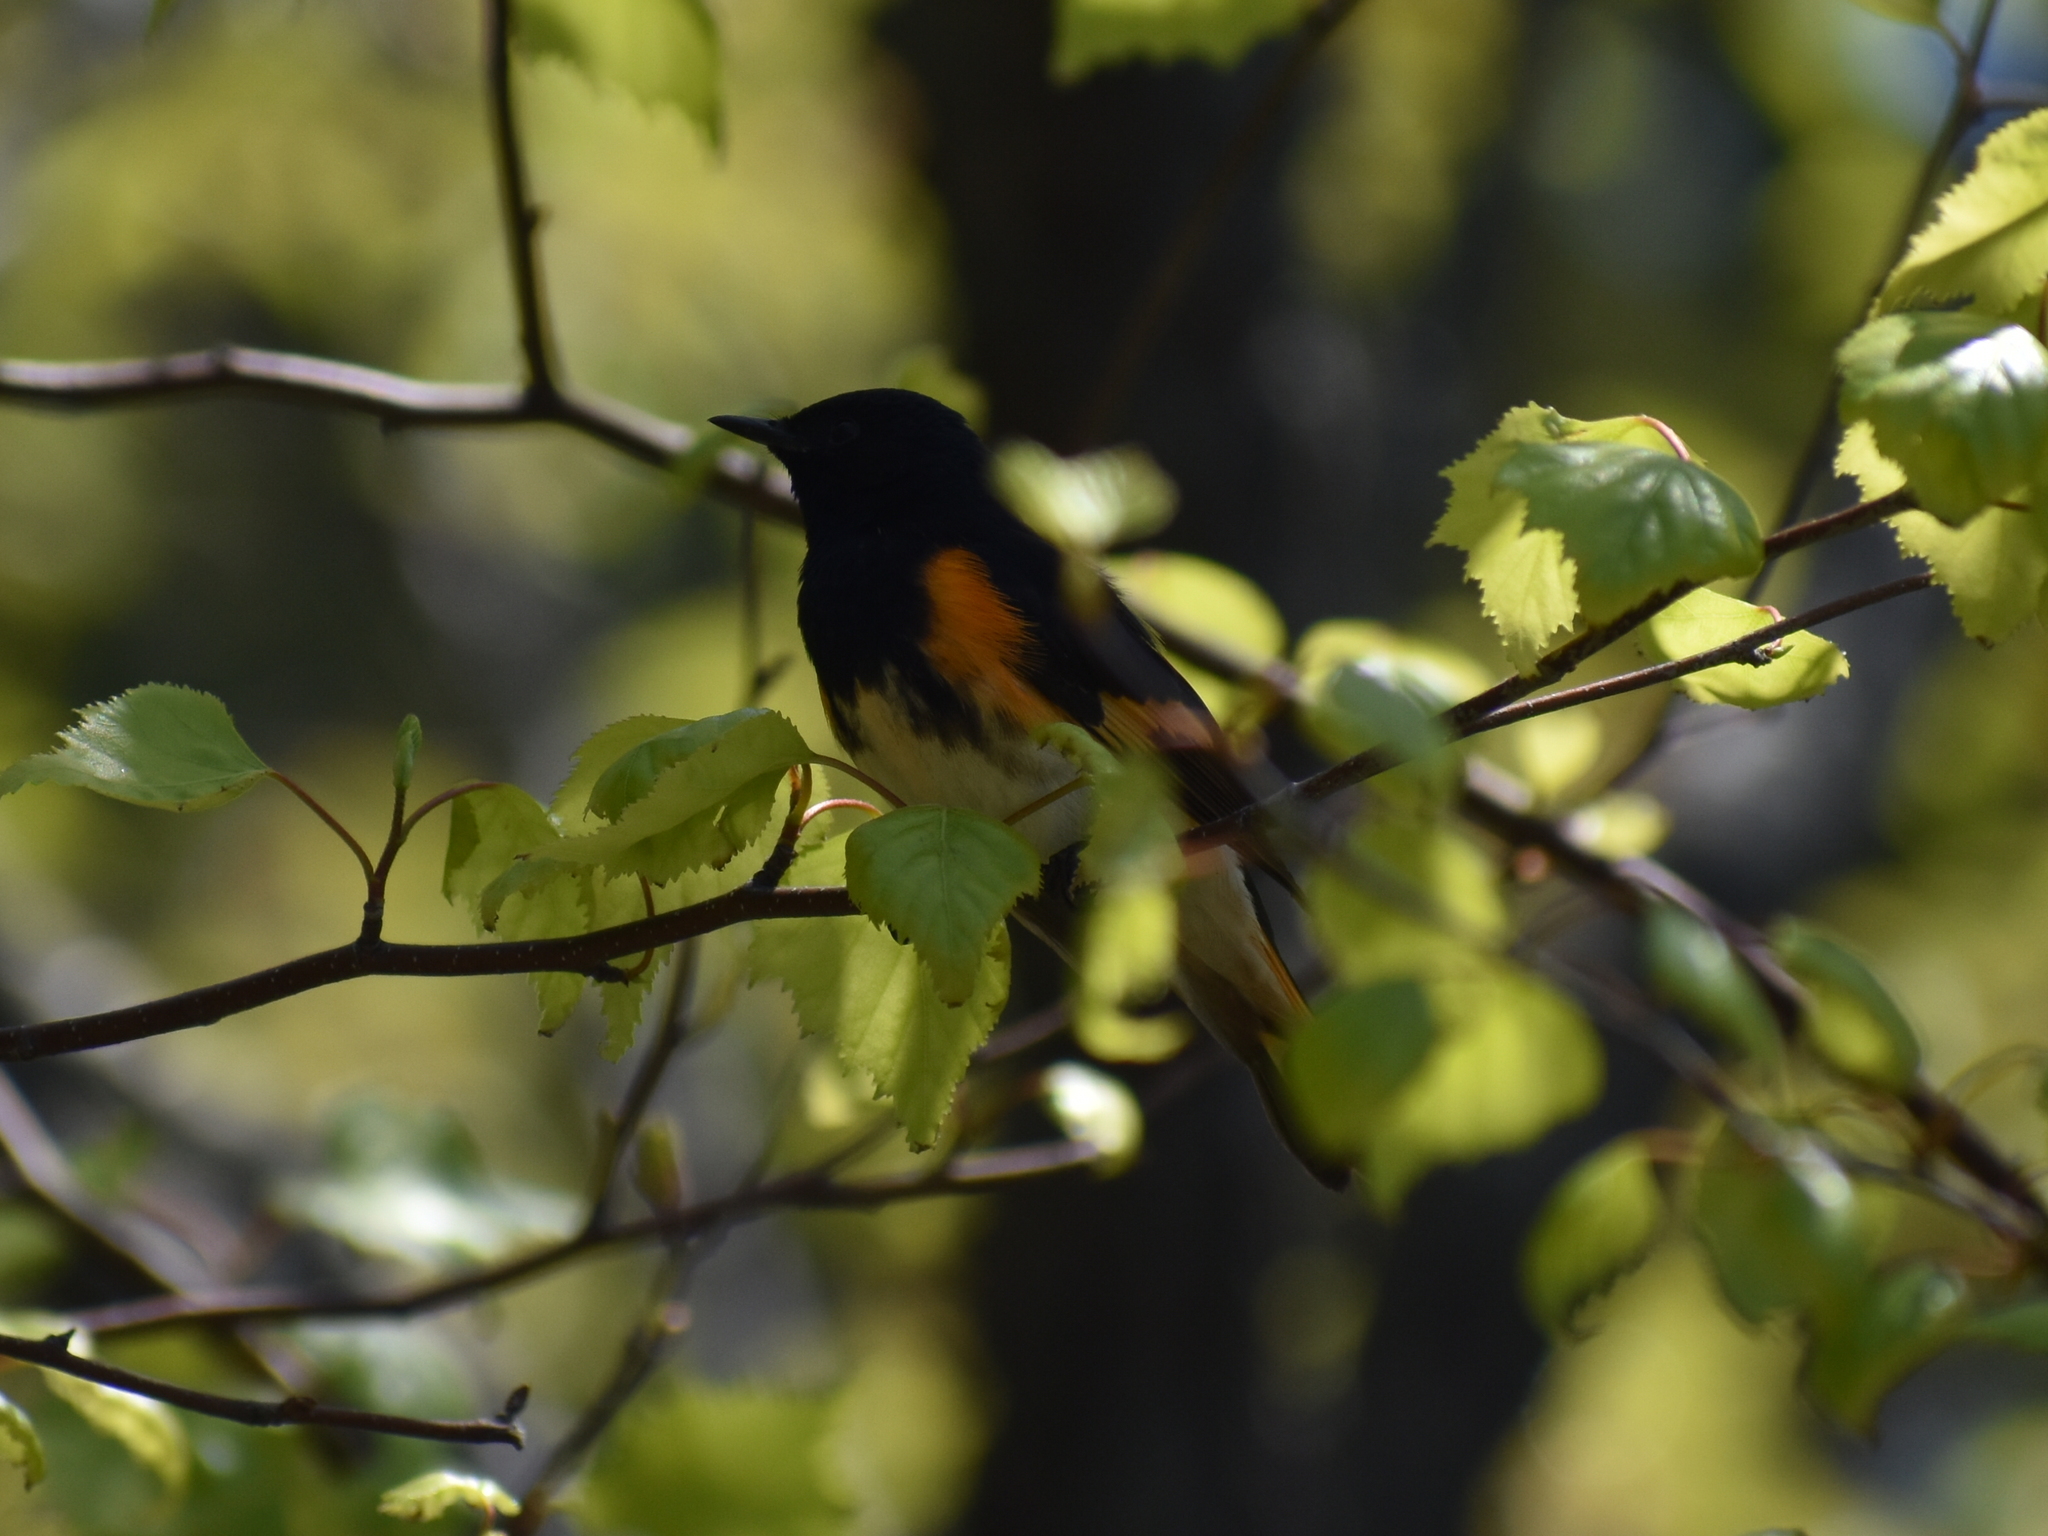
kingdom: Animalia
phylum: Chordata
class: Aves
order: Passeriformes
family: Parulidae
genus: Setophaga
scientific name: Setophaga ruticilla
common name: American redstart
